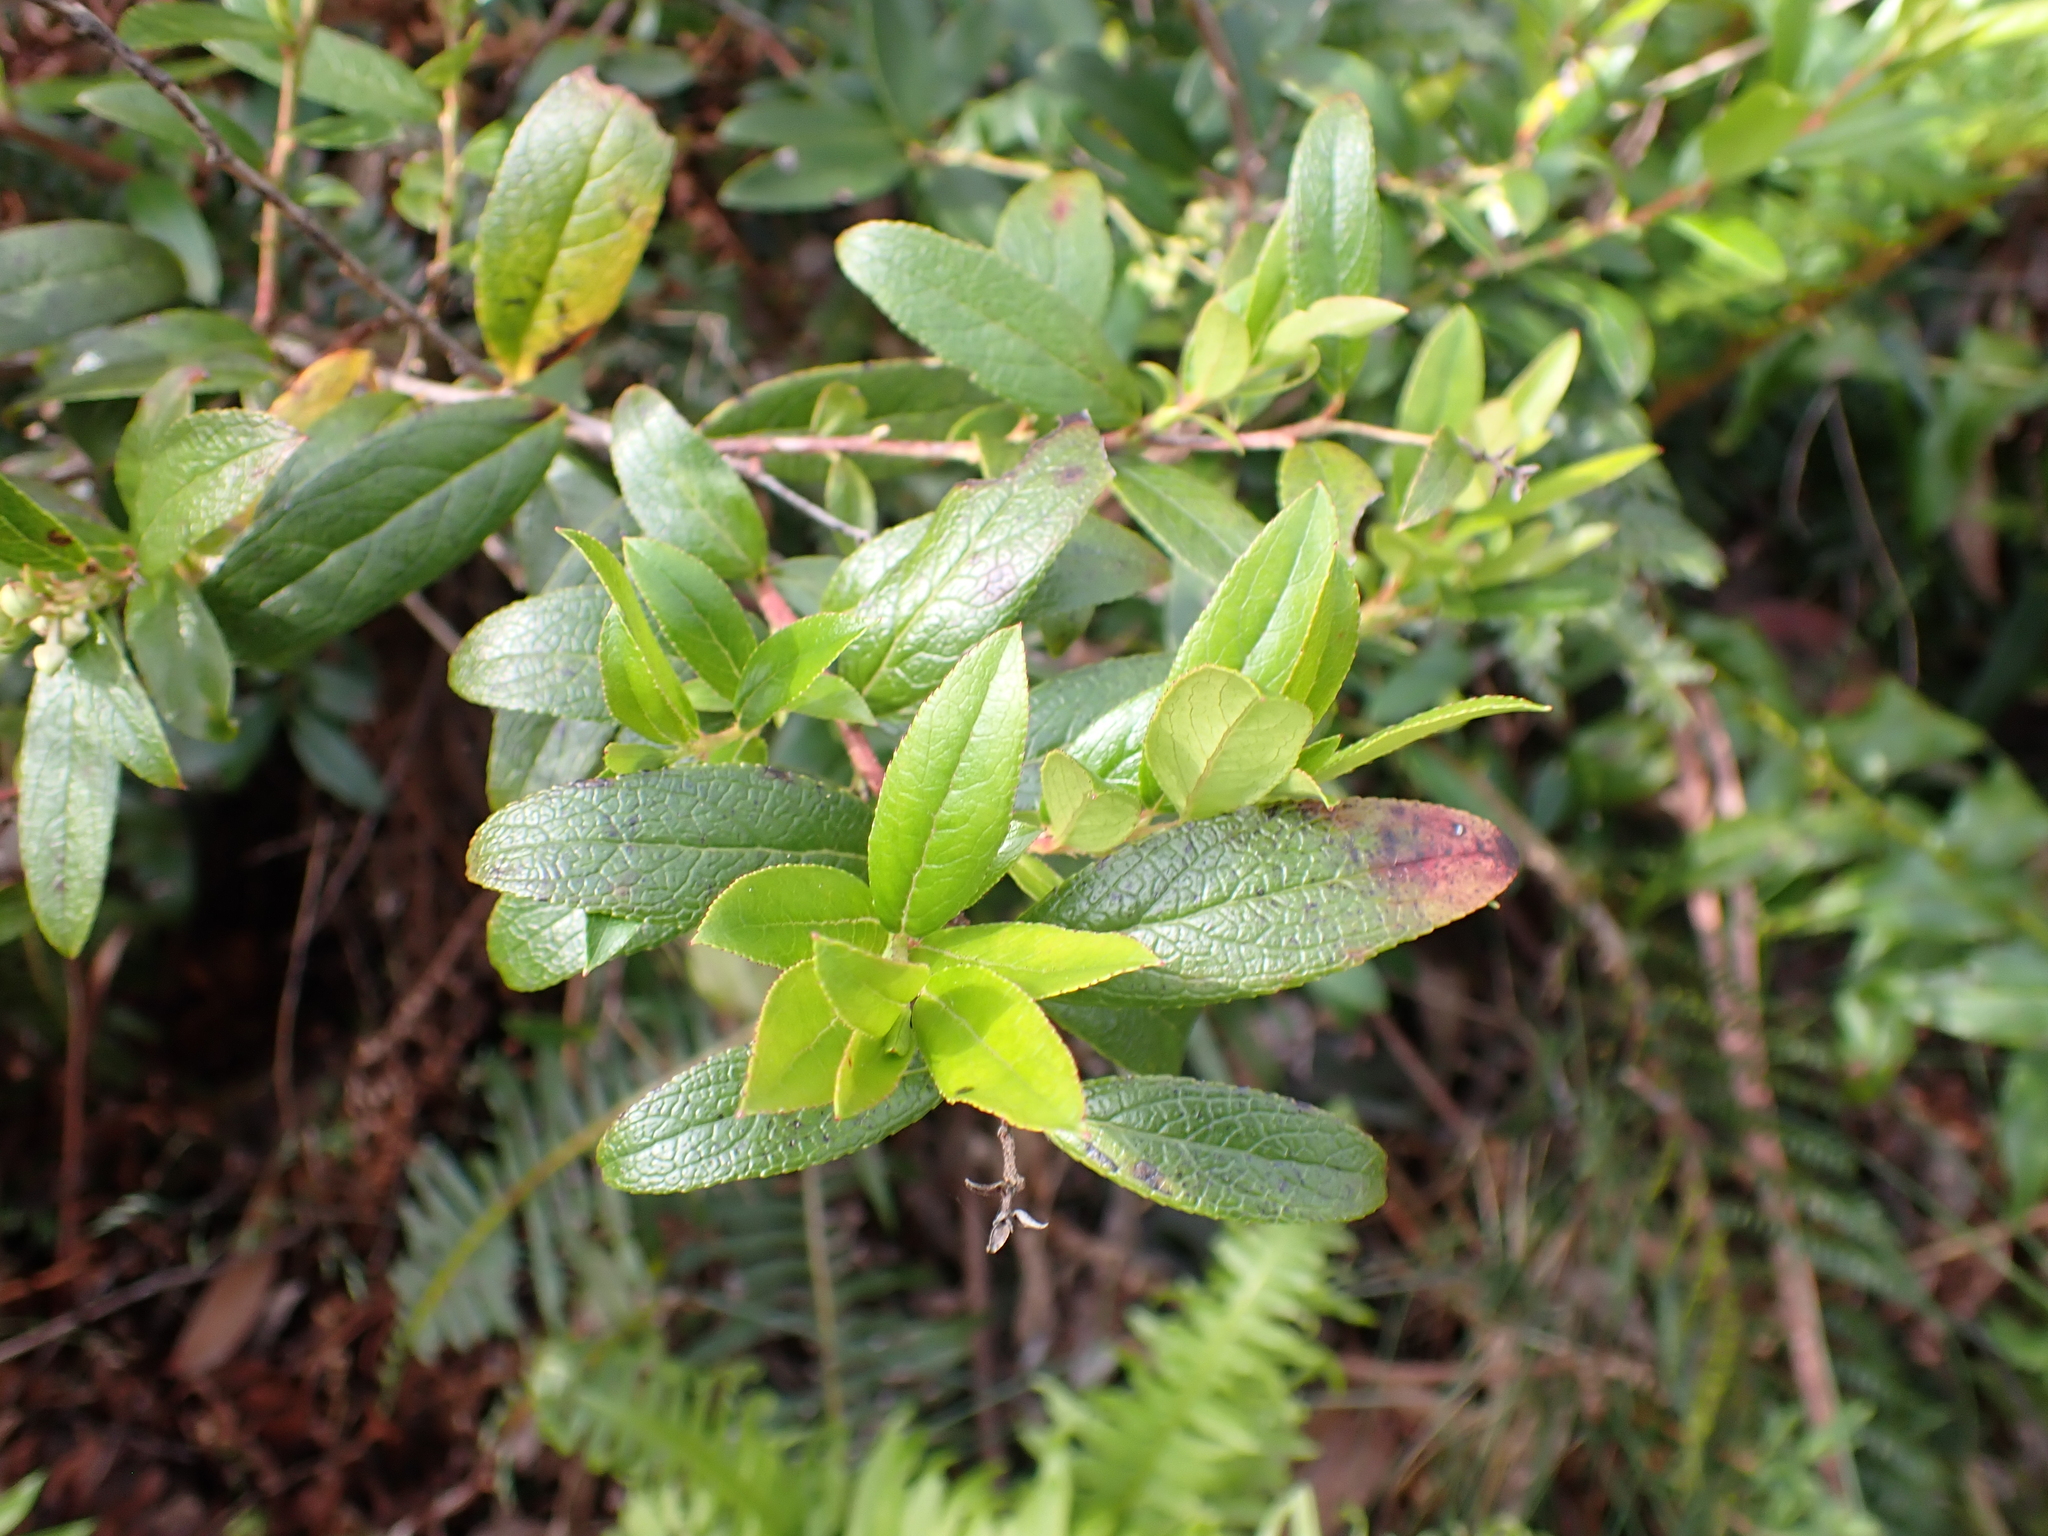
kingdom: Plantae
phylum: Tracheophyta
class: Magnoliopsida
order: Ericales
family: Ericaceae
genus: Gaultheria
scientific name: Gaultheria appressa
